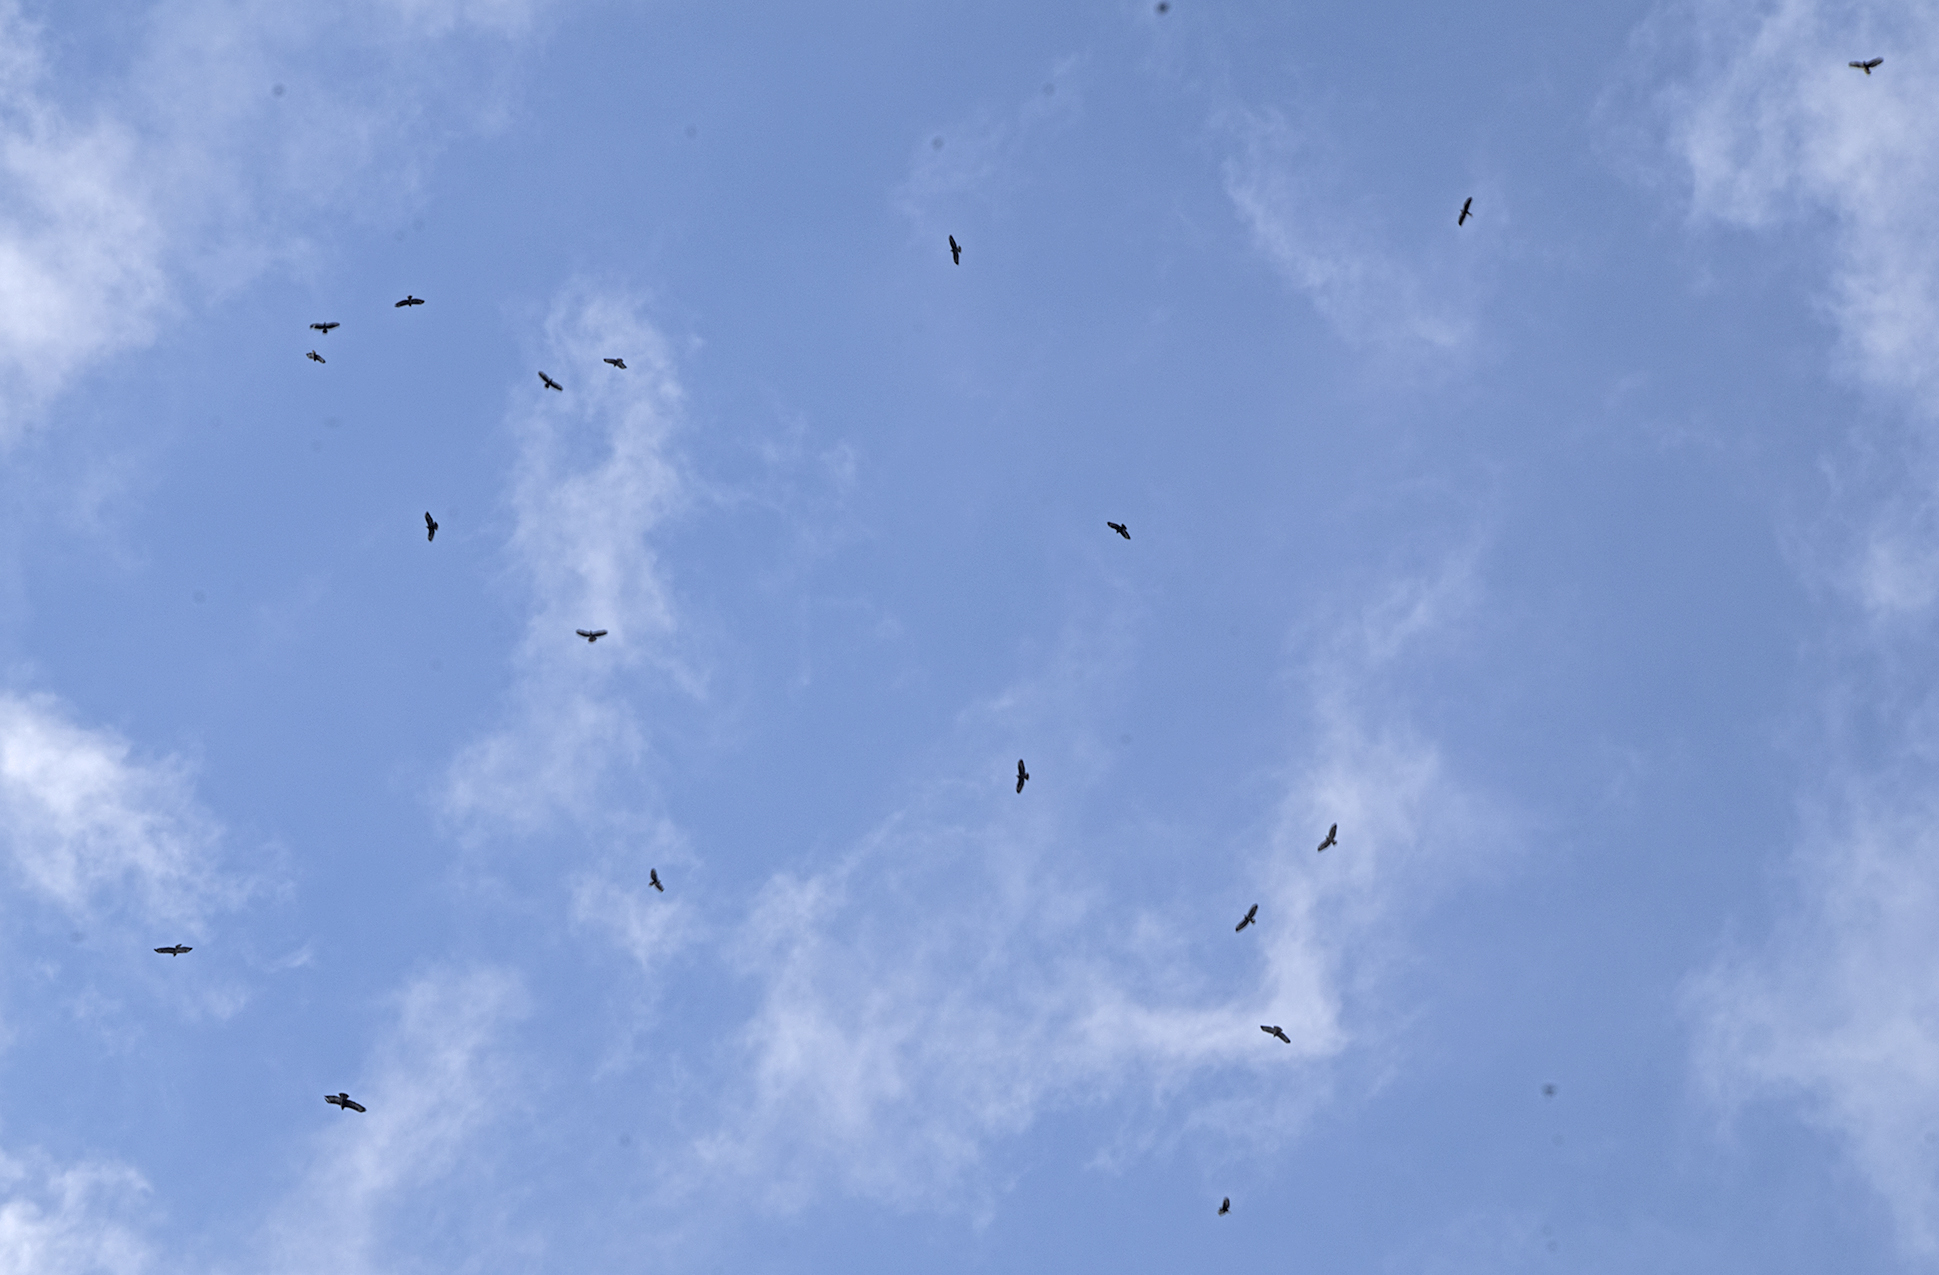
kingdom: Animalia
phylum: Chordata
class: Aves
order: Accipitriformes
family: Accipitridae
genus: Buteo
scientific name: Buteo buteo
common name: Common buzzard
